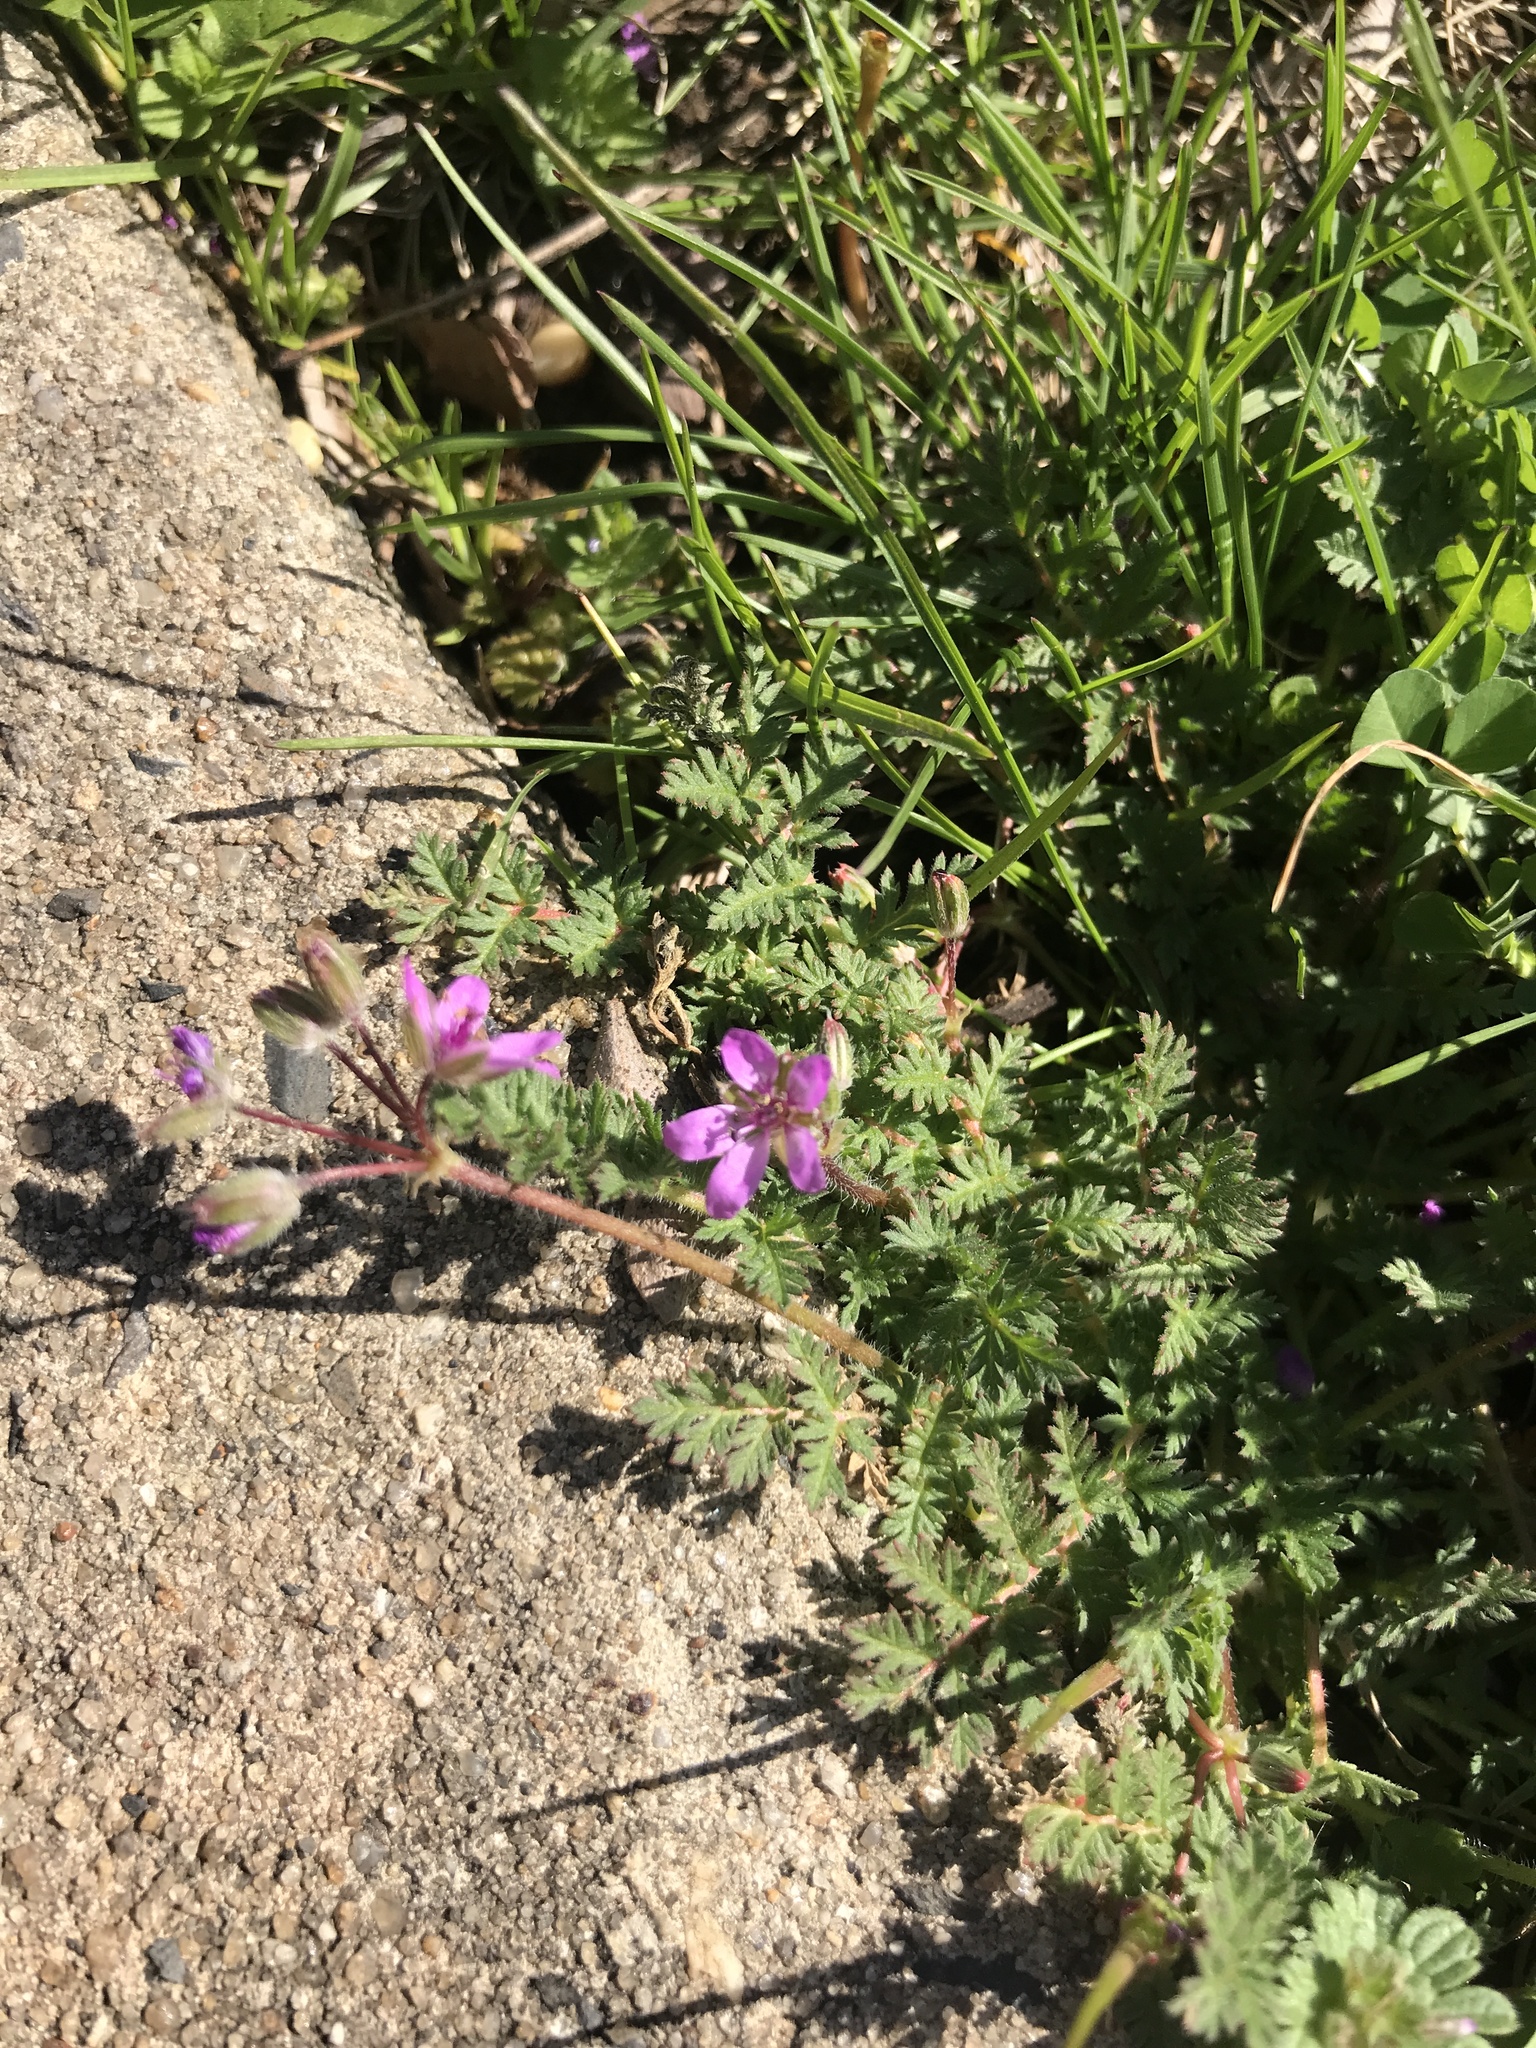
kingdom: Plantae
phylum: Tracheophyta
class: Magnoliopsida
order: Geraniales
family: Geraniaceae
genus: Erodium
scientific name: Erodium cicutarium
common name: Common stork's-bill
